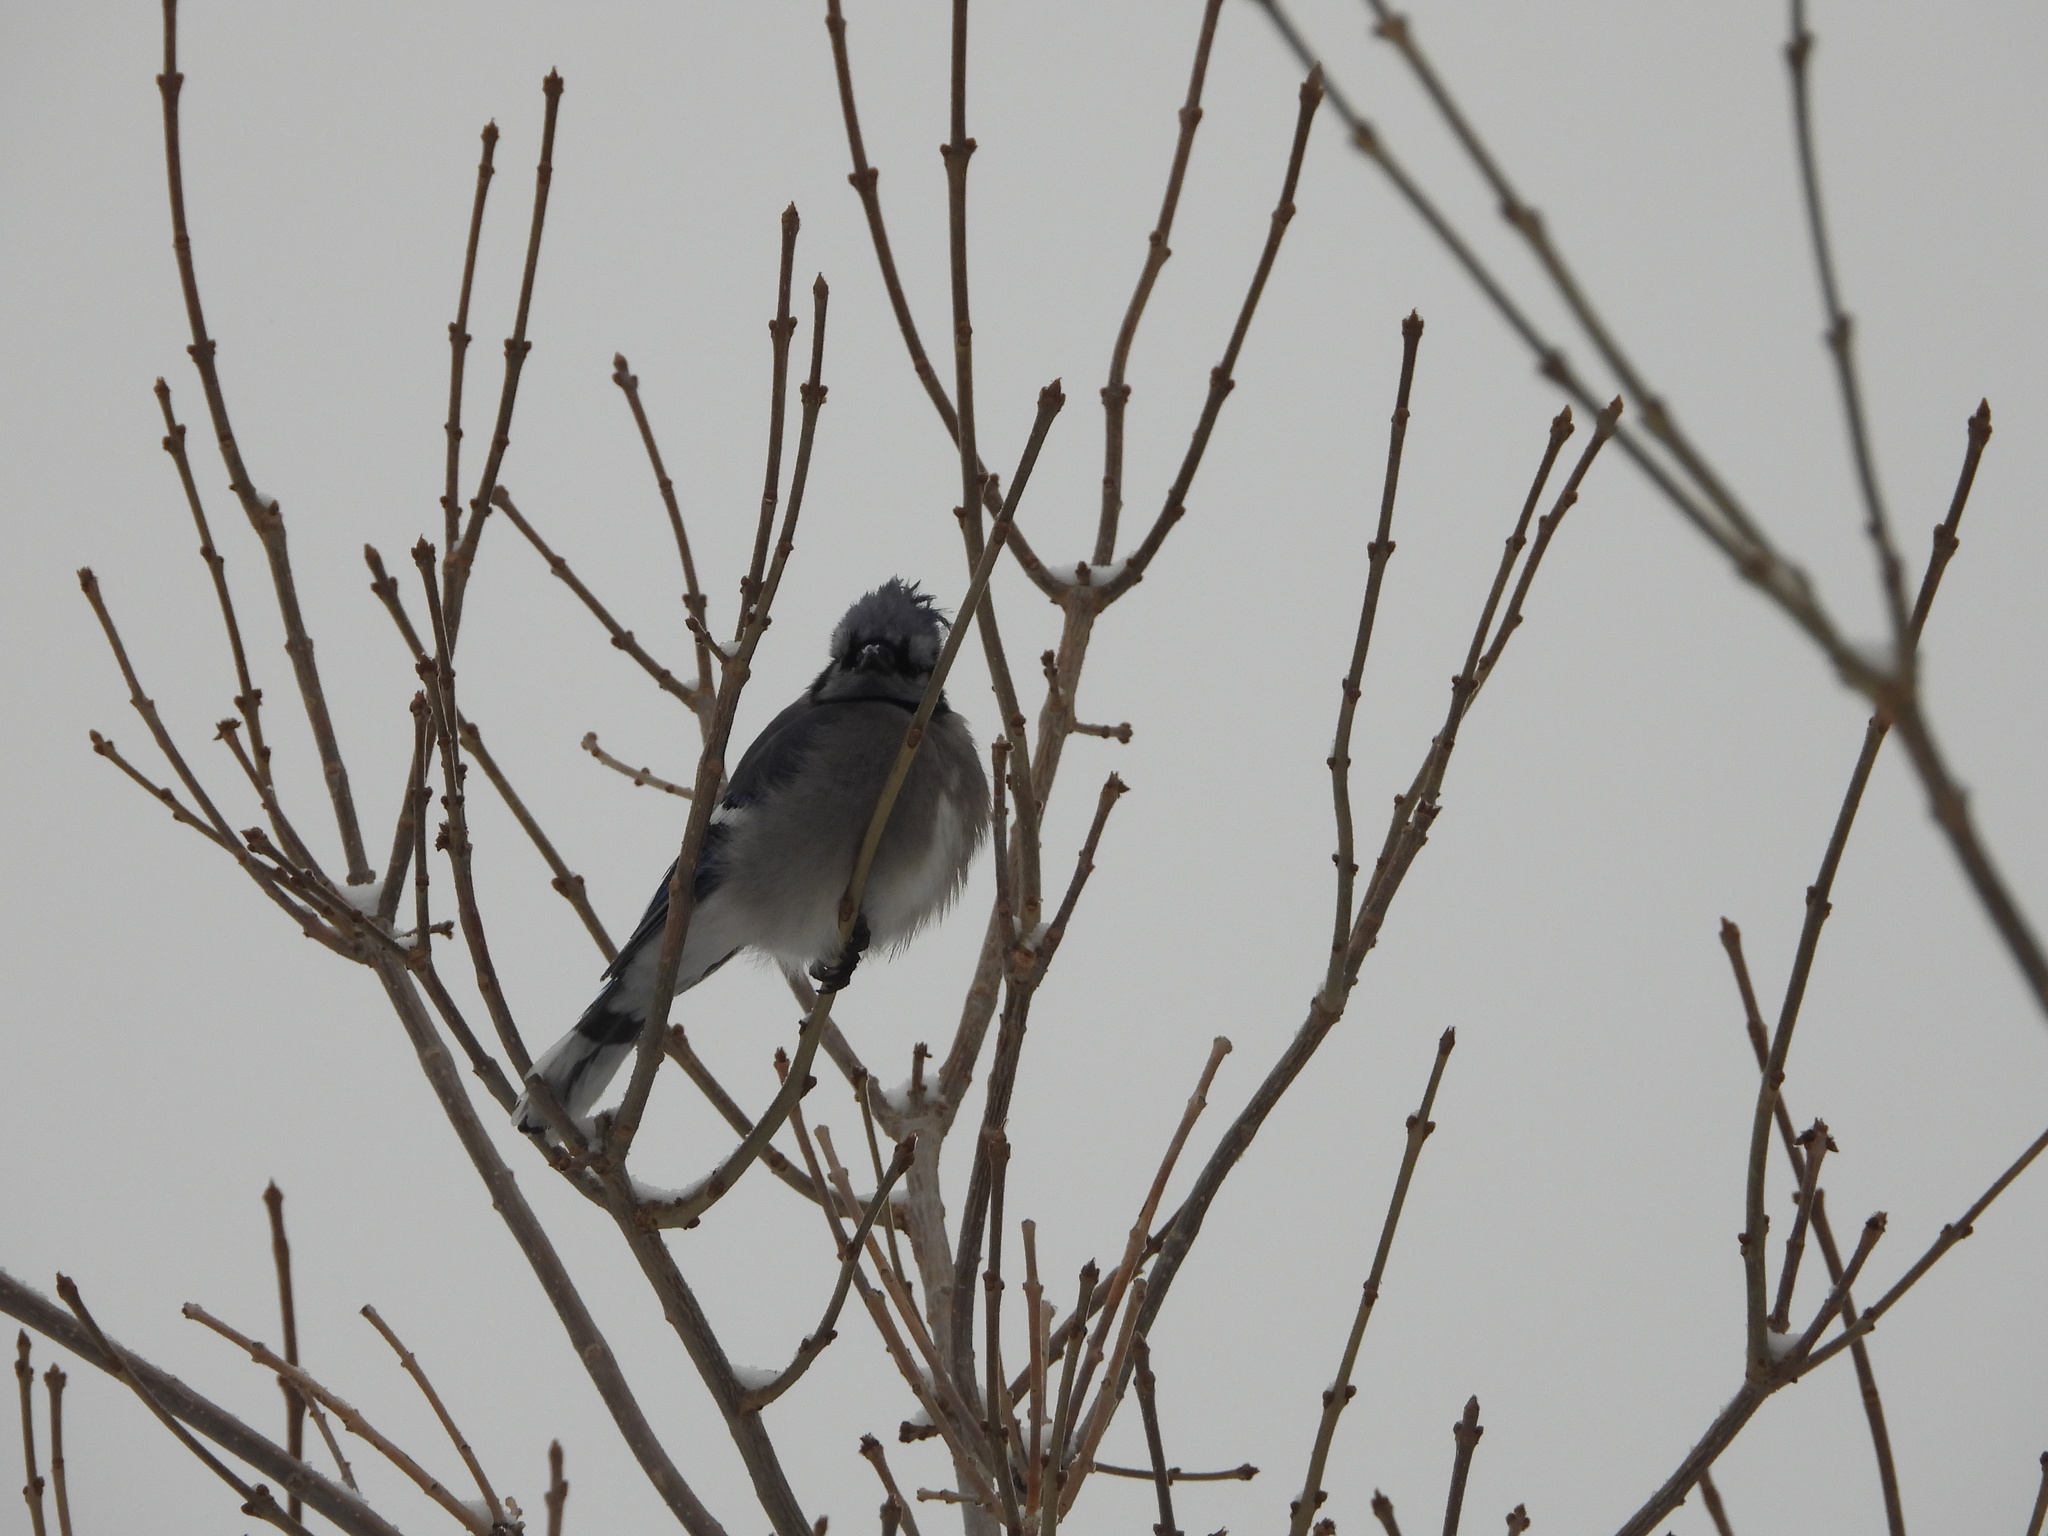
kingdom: Animalia
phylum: Chordata
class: Aves
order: Passeriformes
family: Corvidae
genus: Cyanocitta
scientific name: Cyanocitta cristata
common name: Blue jay
